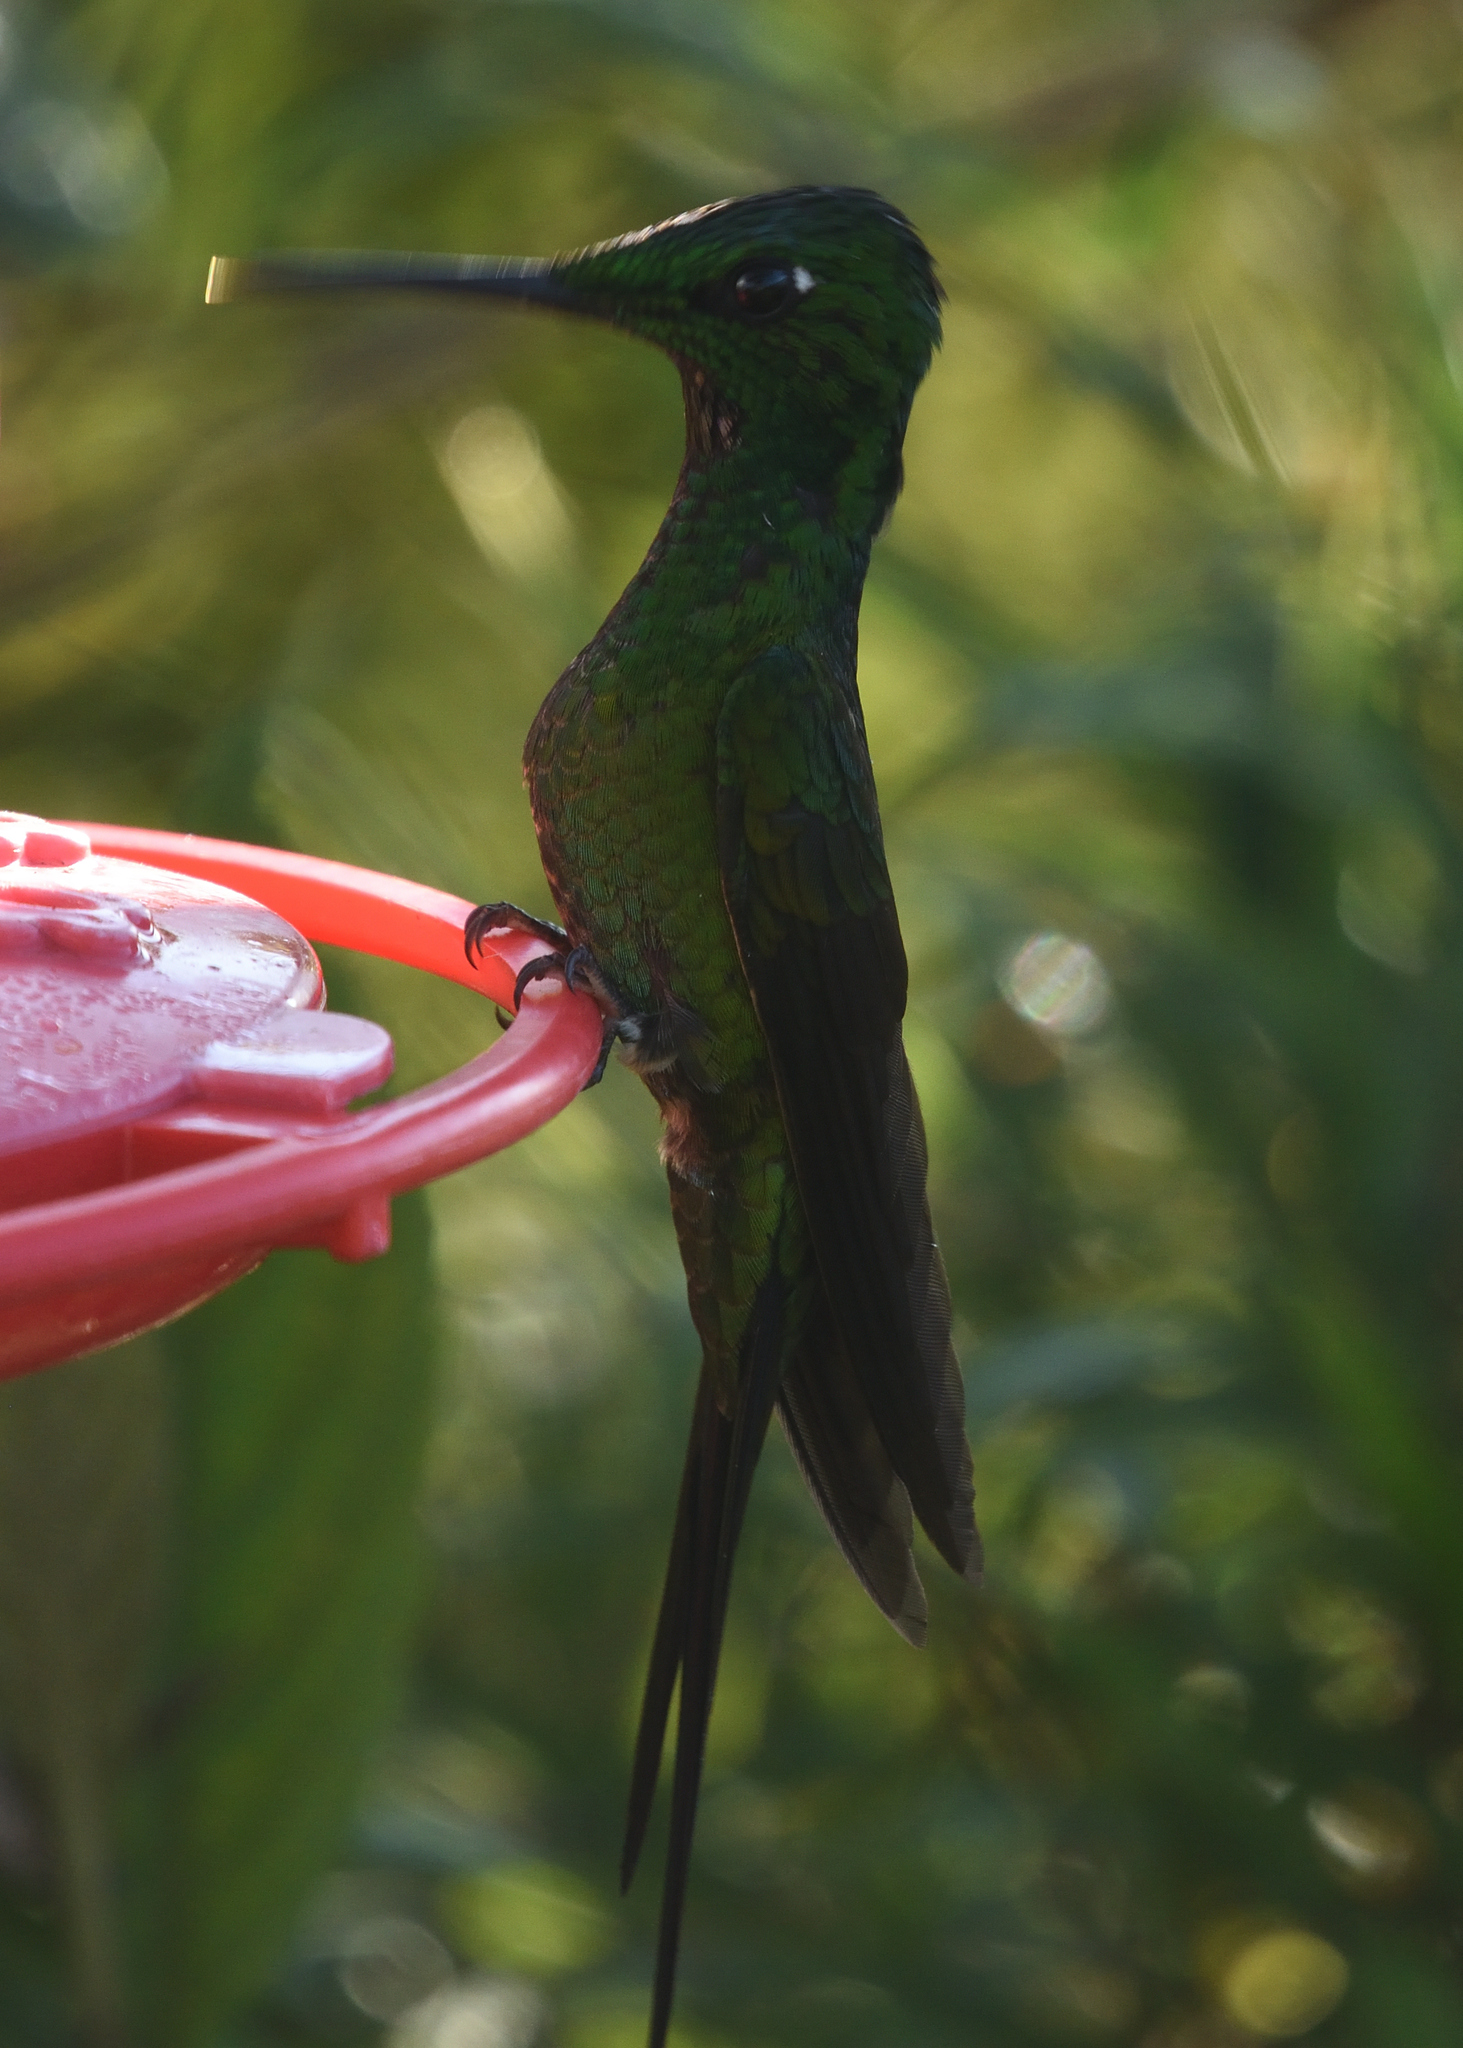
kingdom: Animalia
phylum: Chordata
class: Aves
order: Apodiformes
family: Trochilidae
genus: Heliodoxa
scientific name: Heliodoxa imperatrix
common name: Empress brilliant
